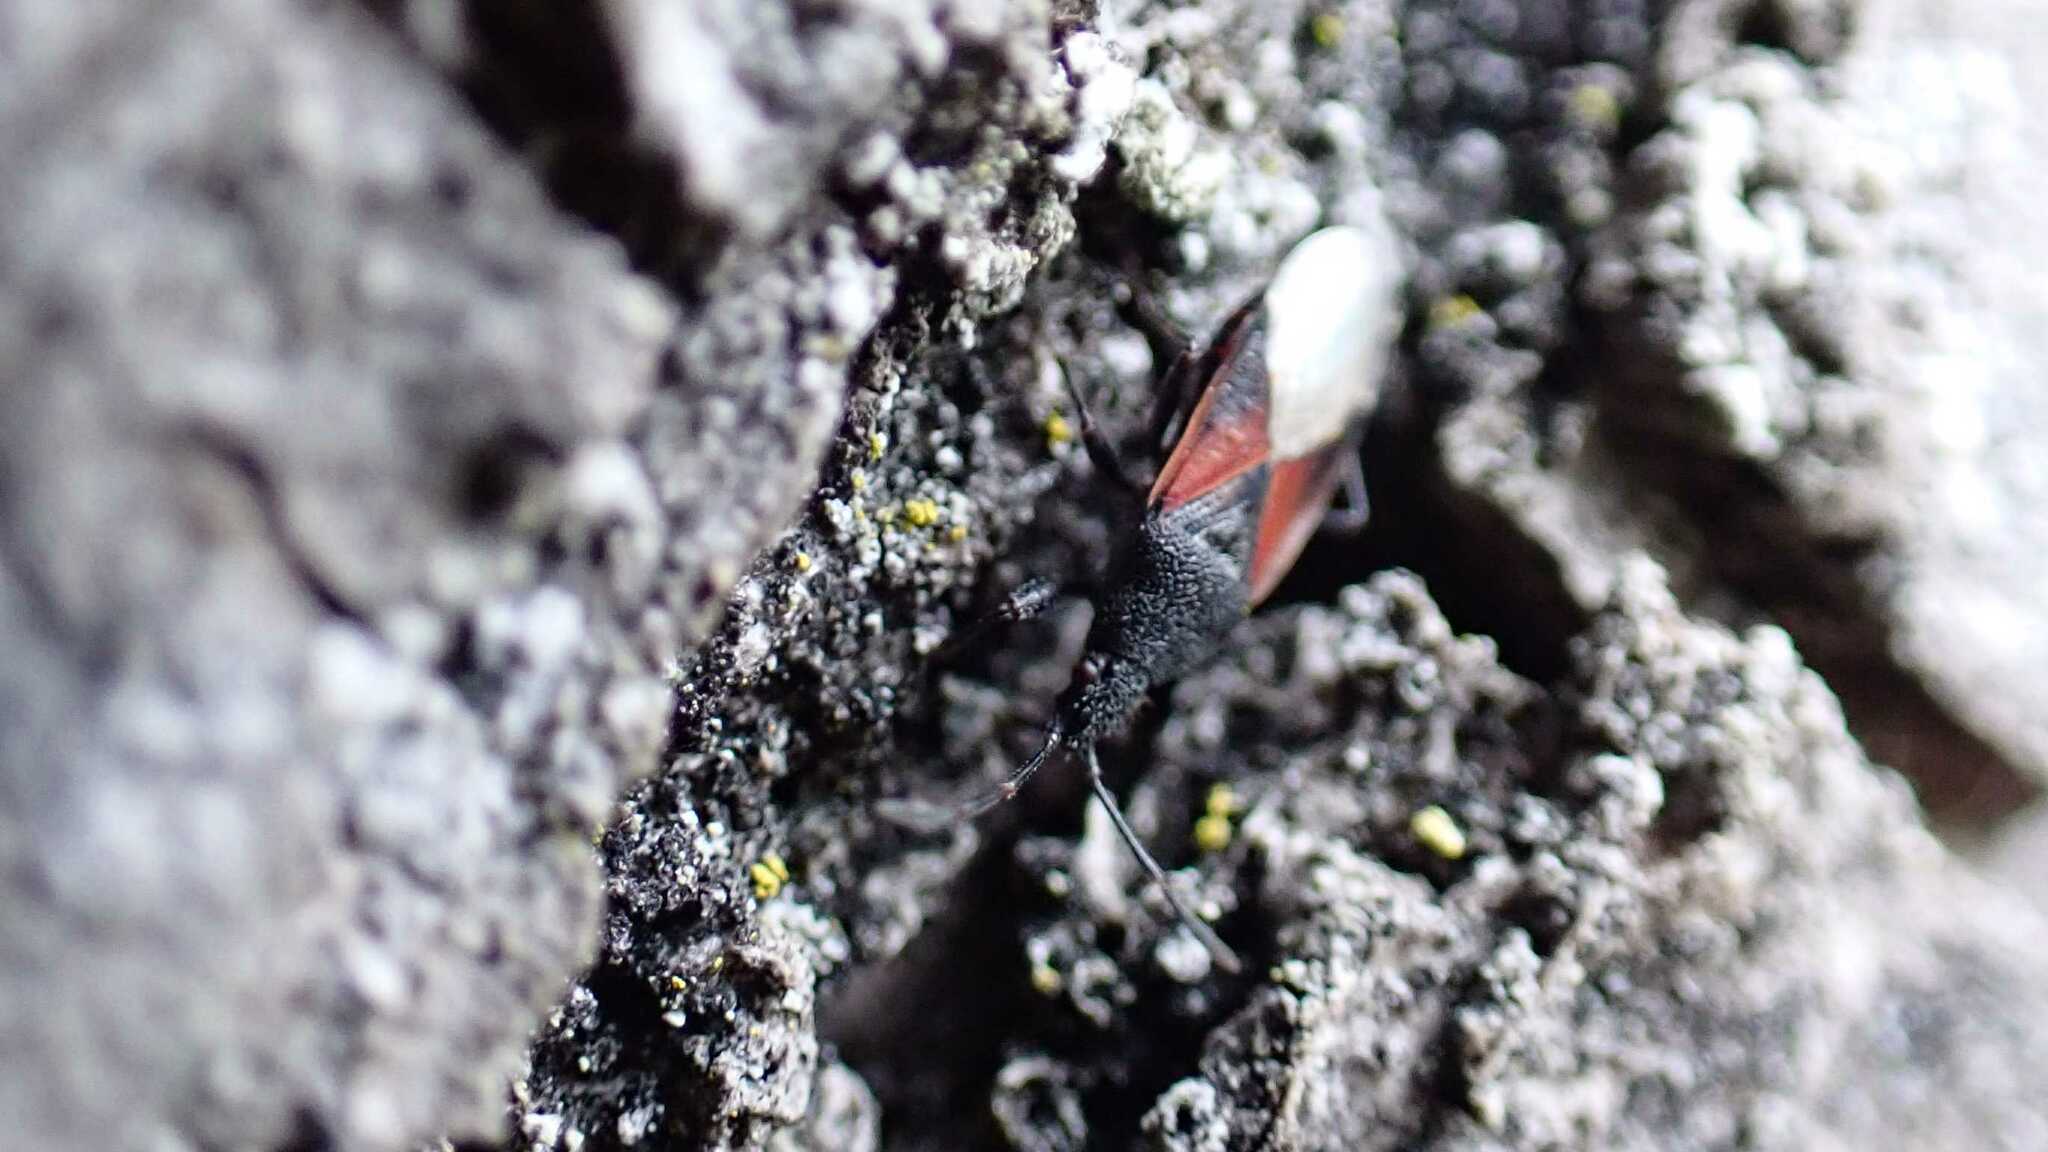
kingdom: Animalia
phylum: Arthropoda
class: Insecta
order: Hemiptera
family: Oxycarenidae
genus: Oxycarenus
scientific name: Oxycarenus lavaterae
